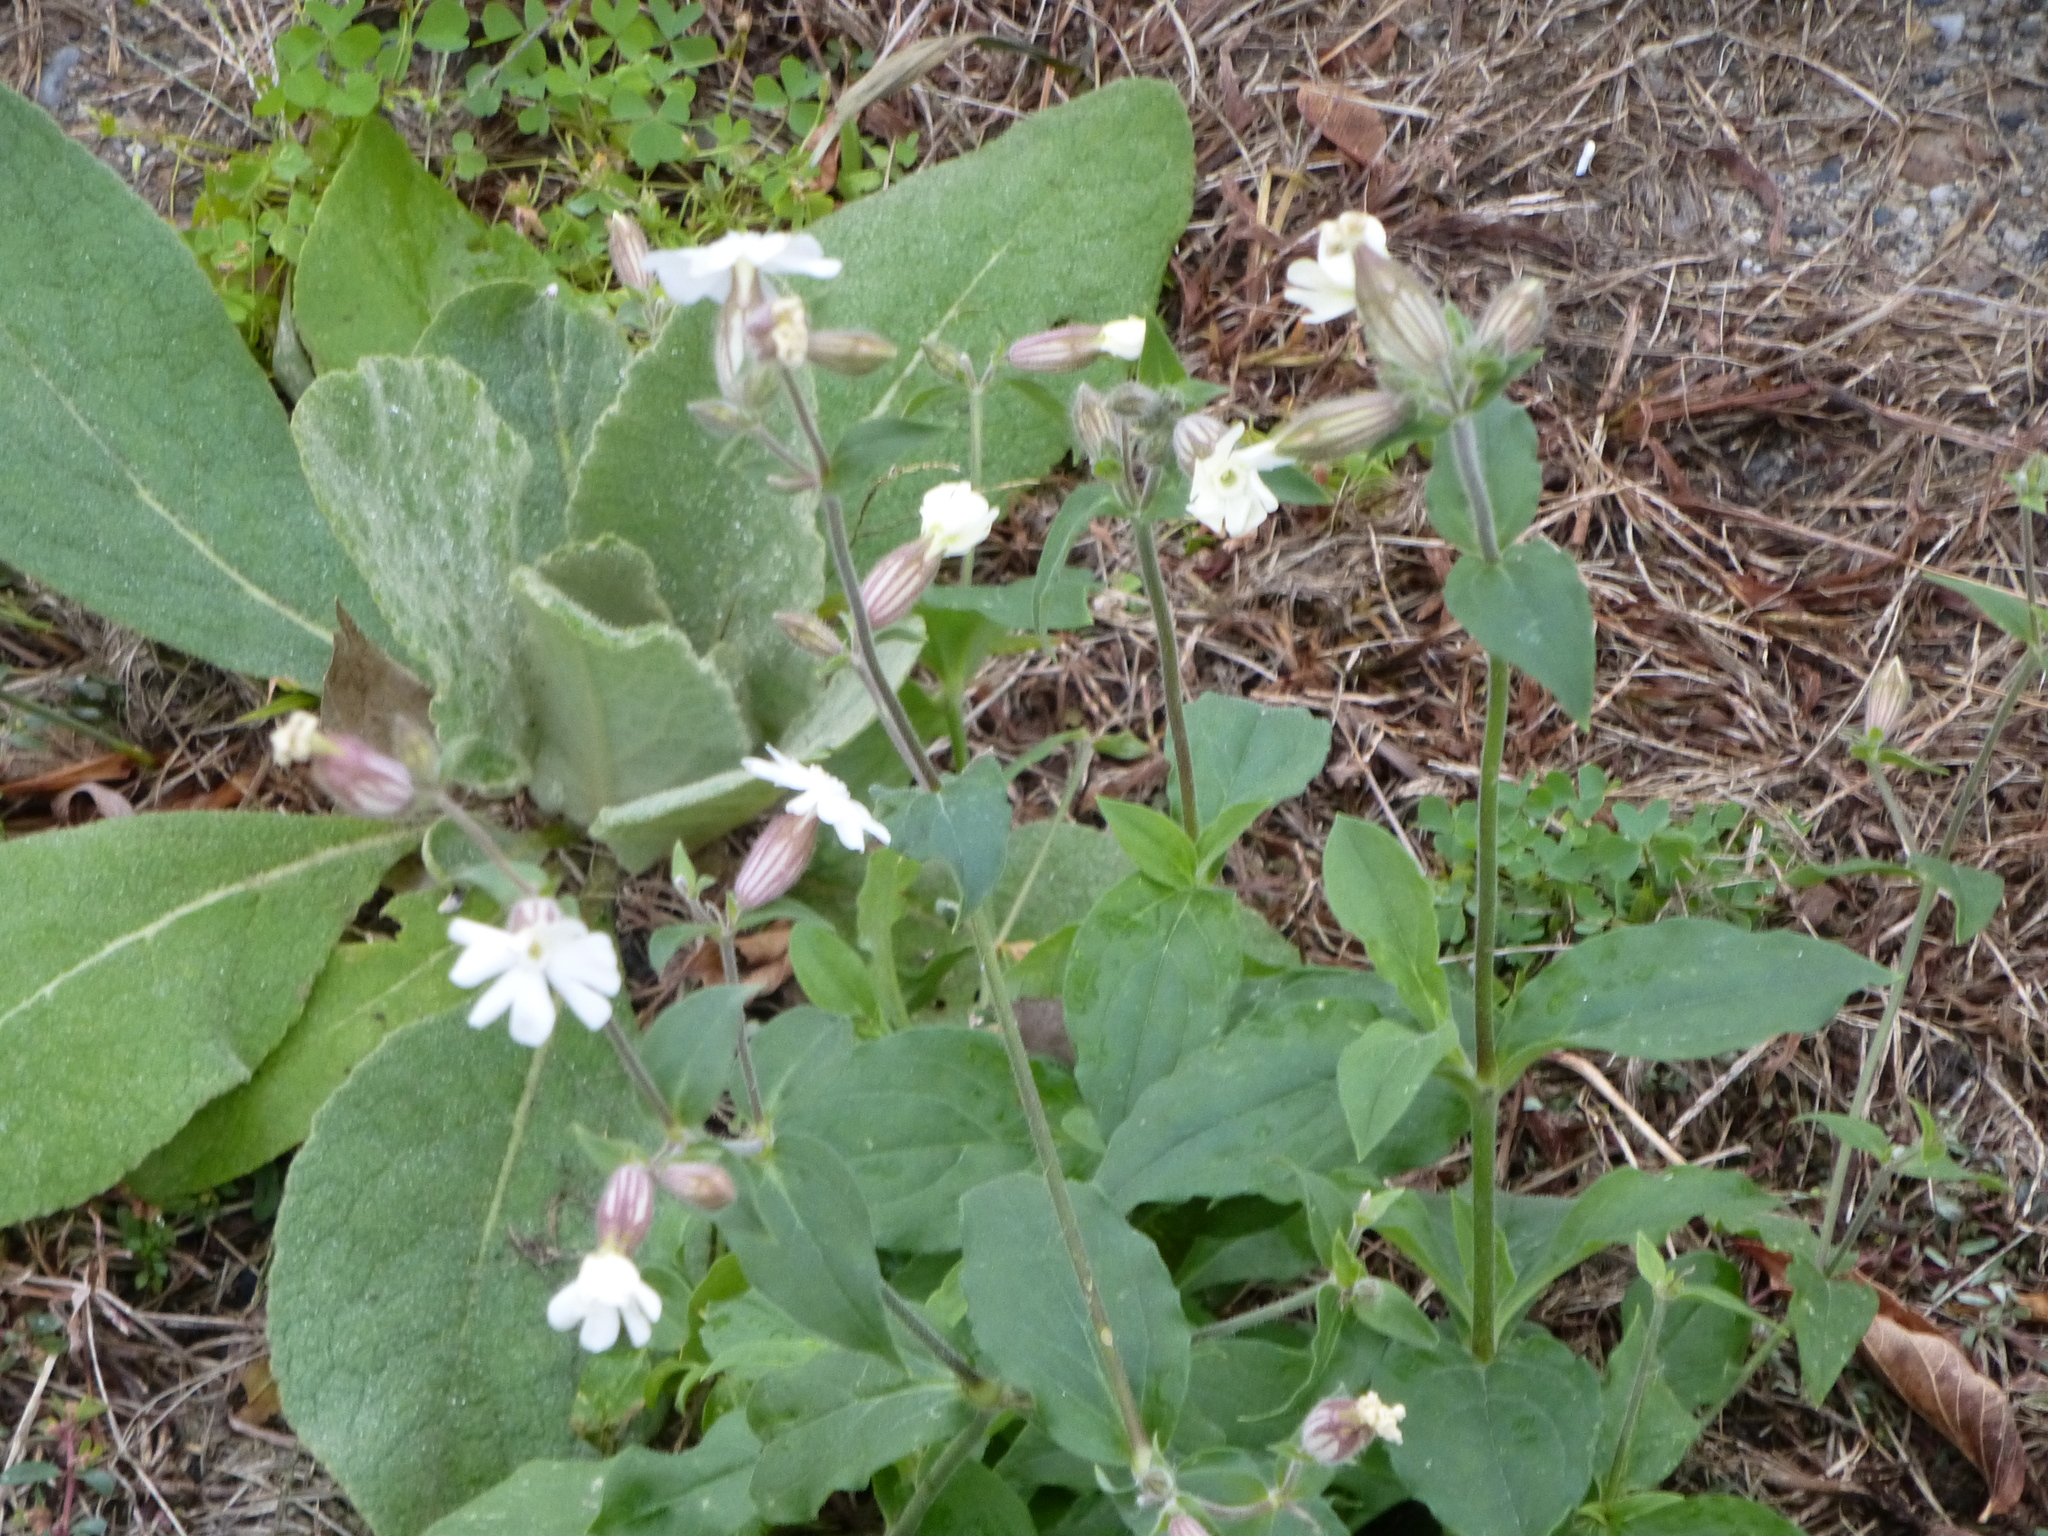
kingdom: Plantae
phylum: Tracheophyta
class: Magnoliopsida
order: Caryophyllales
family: Caryophyllaceae
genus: Silene
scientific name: Silene latifolia
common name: White campion
